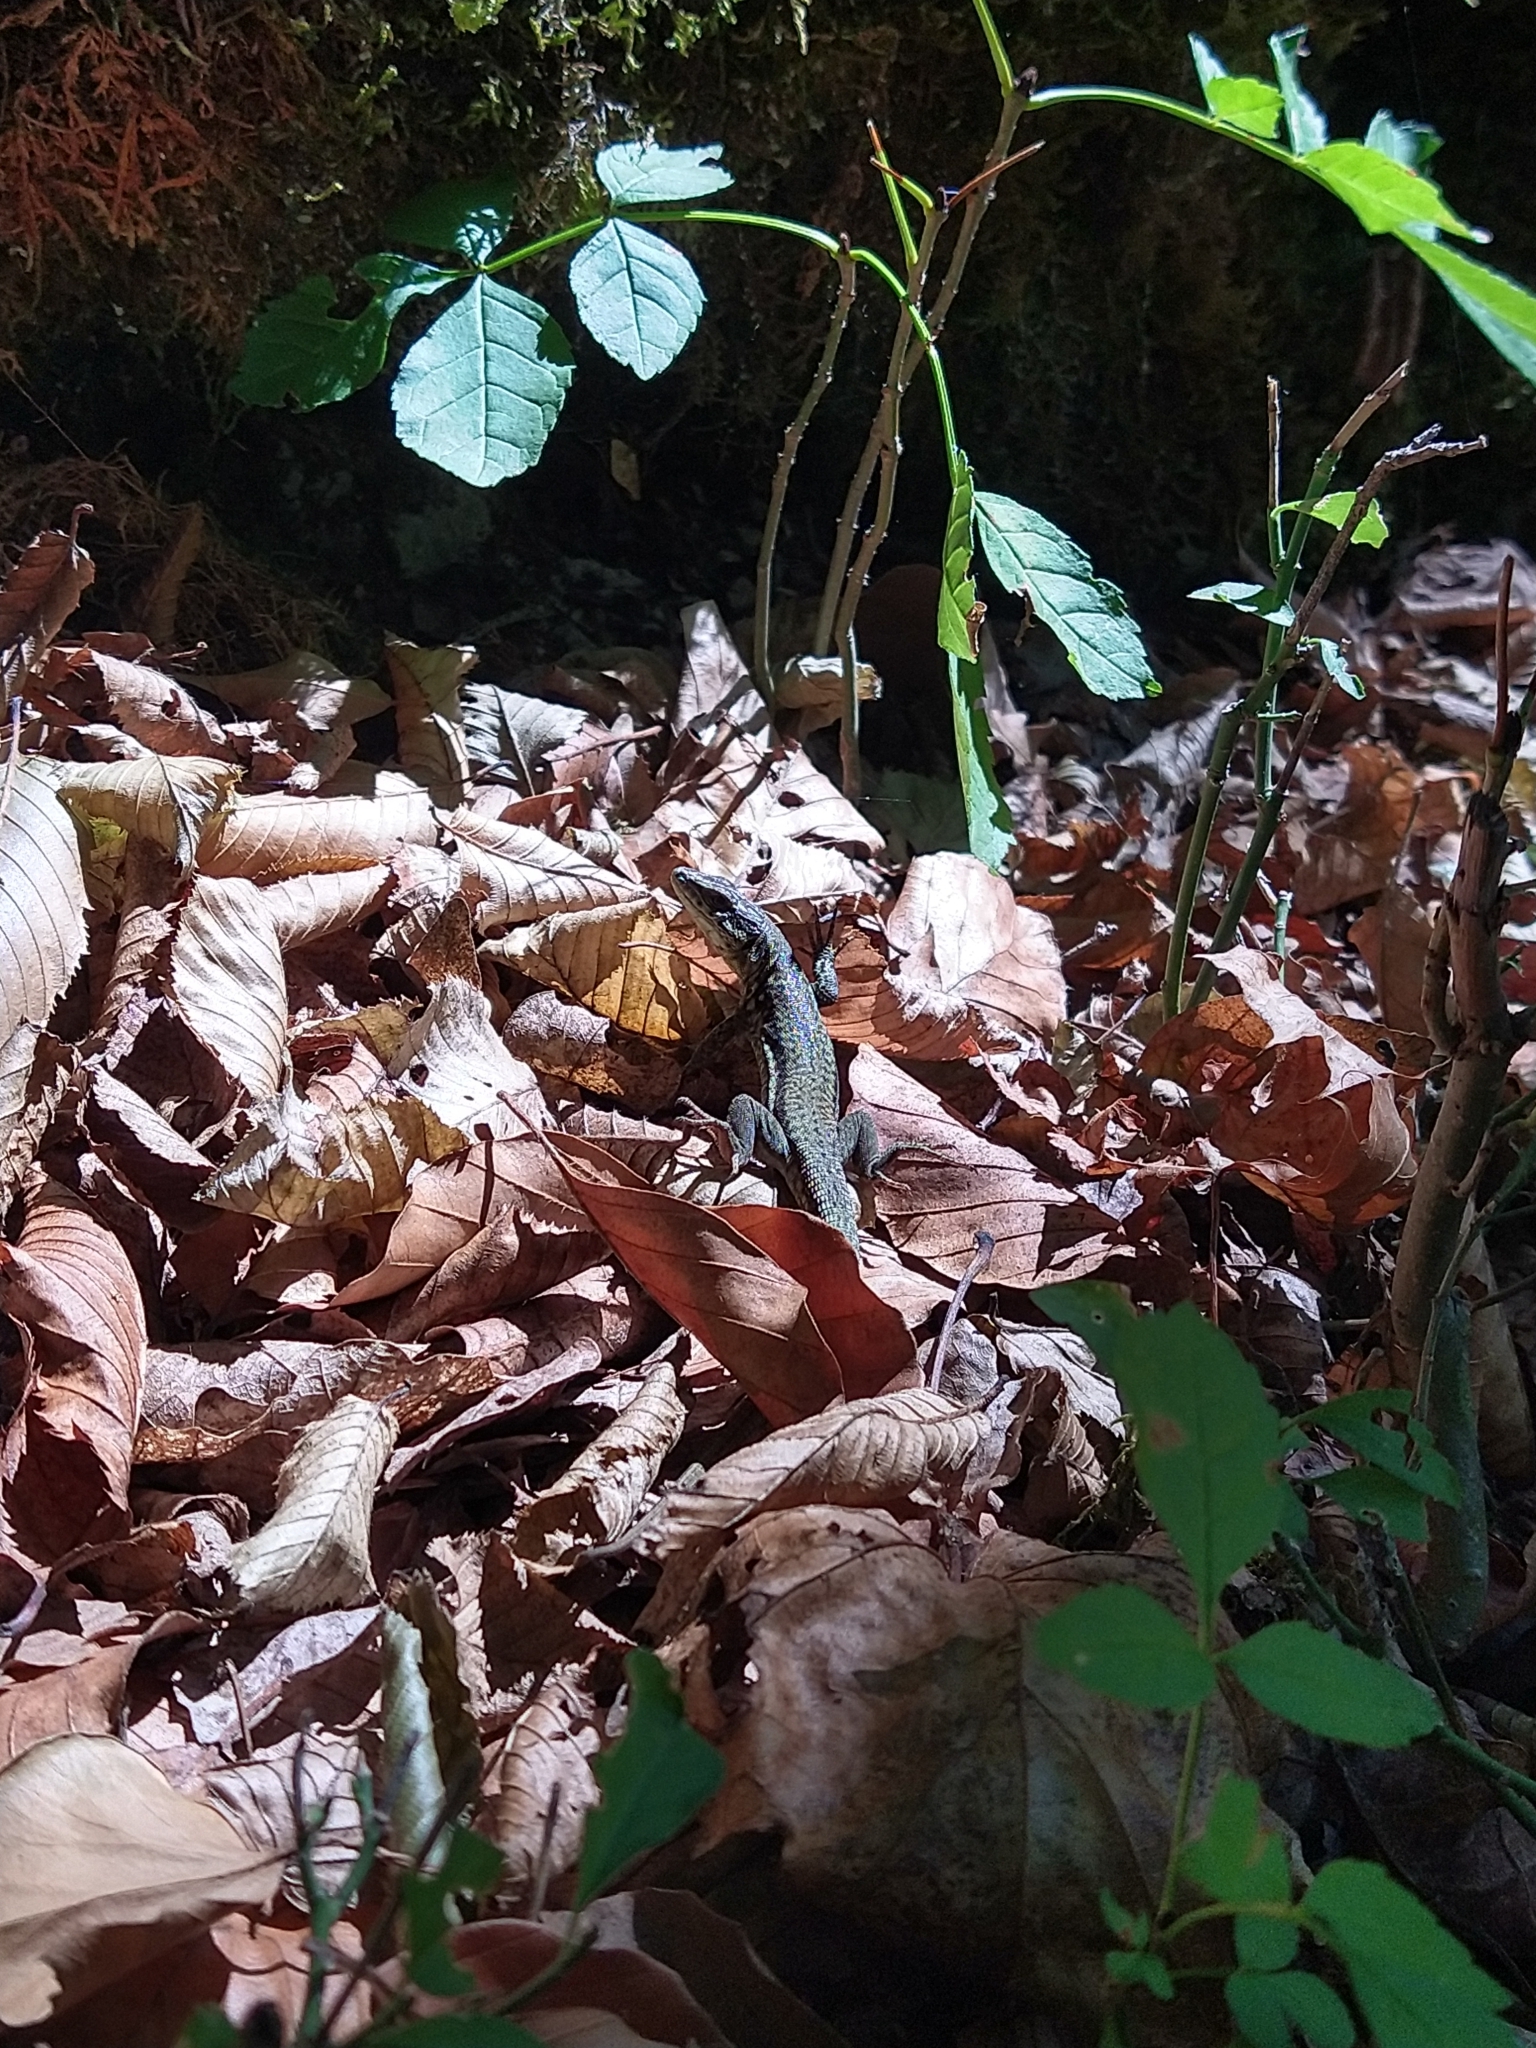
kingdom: Animalia
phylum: Chordata
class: Squamata
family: Lacertidae
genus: Podarcis
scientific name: Podarcis muralis
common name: Common wall lizard
